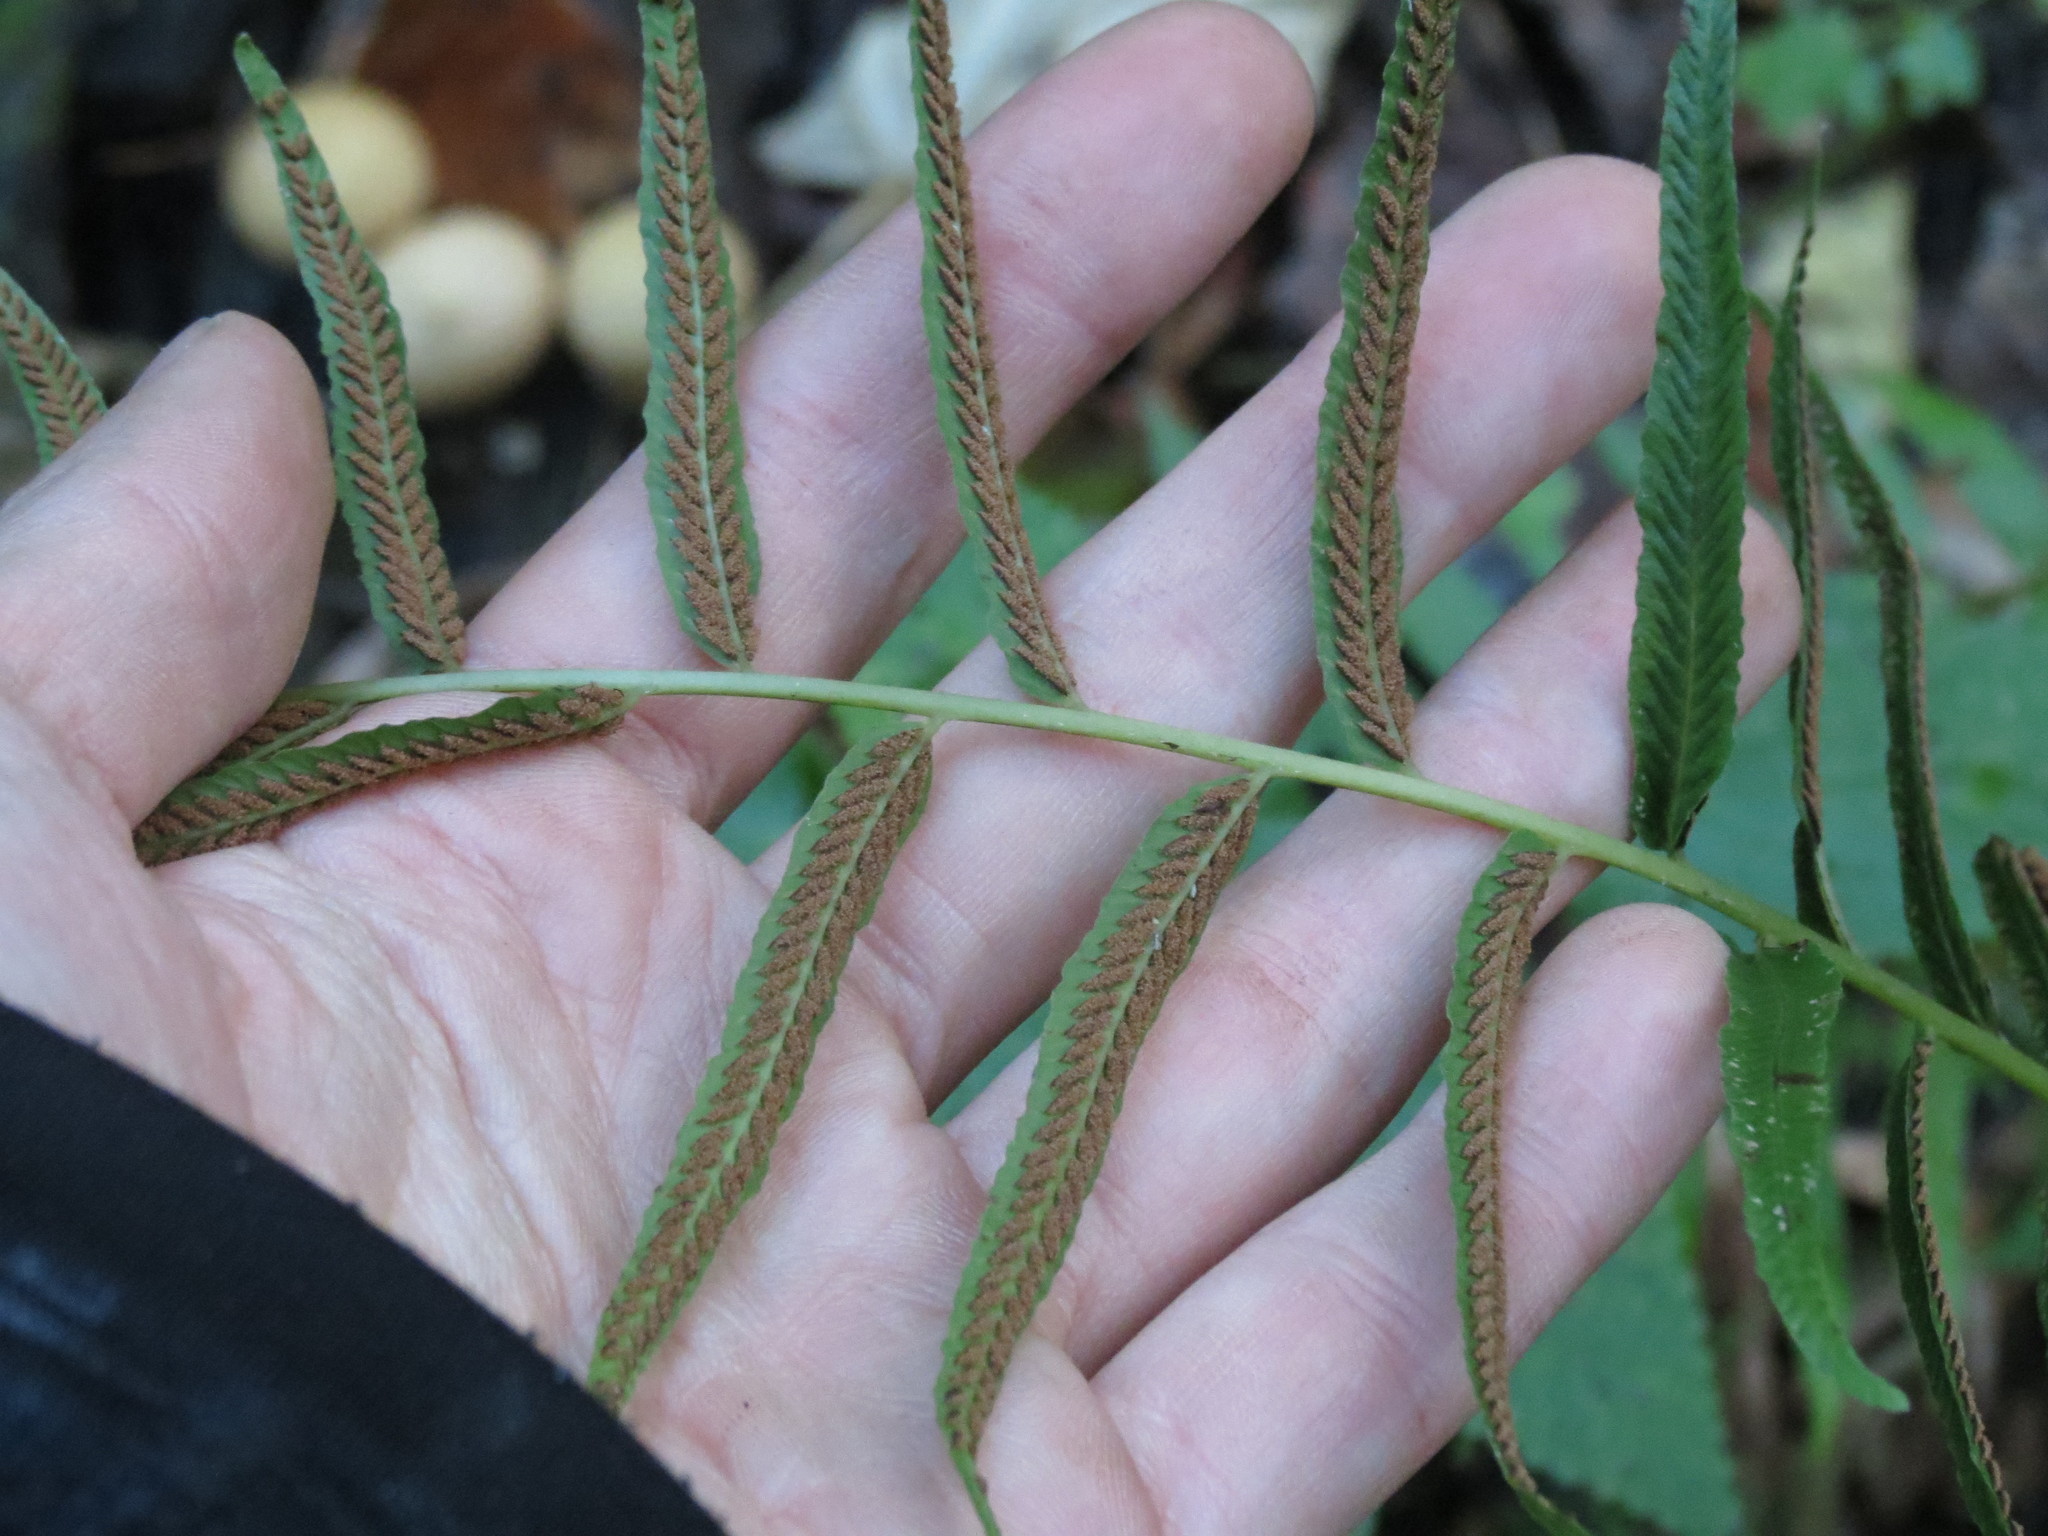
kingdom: Plantae
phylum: Tracheophyta
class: Polypodiopsida
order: Polypodiales
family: Diplaziopsidaceae
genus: Homalosorus
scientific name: Homalosorus pycnocarpos
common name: Glade fern
